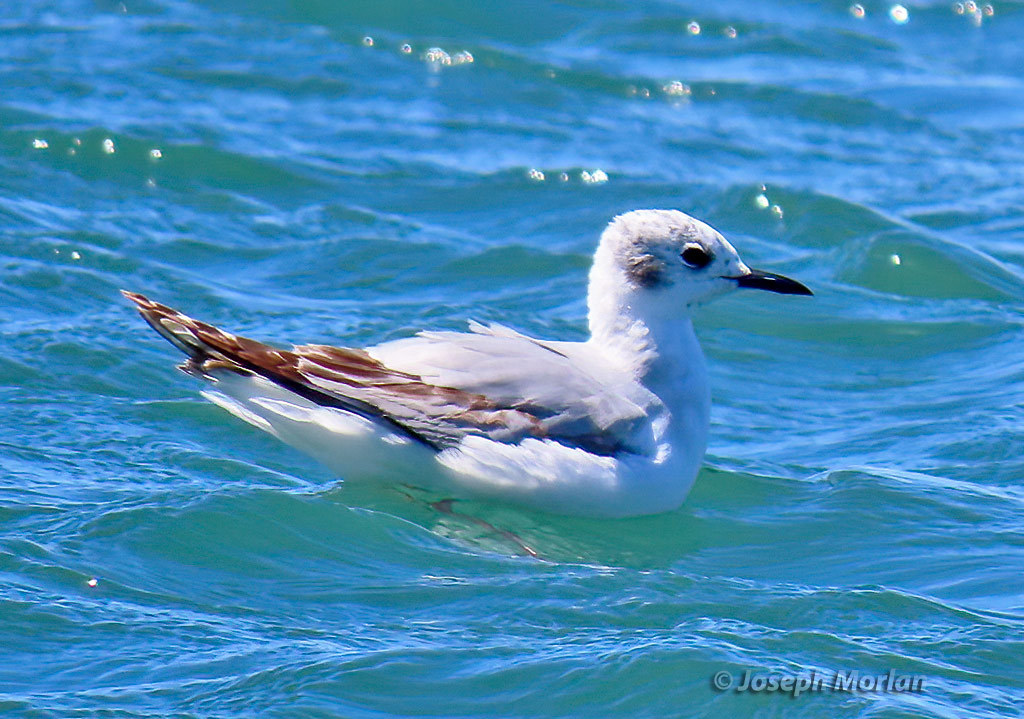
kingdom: Animalia
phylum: Chordata
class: Aves
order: Charadriiformes
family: Laridae
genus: Chroicocephalus
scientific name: Chroicocephalus philadelphia
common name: Bonaparte's gull
